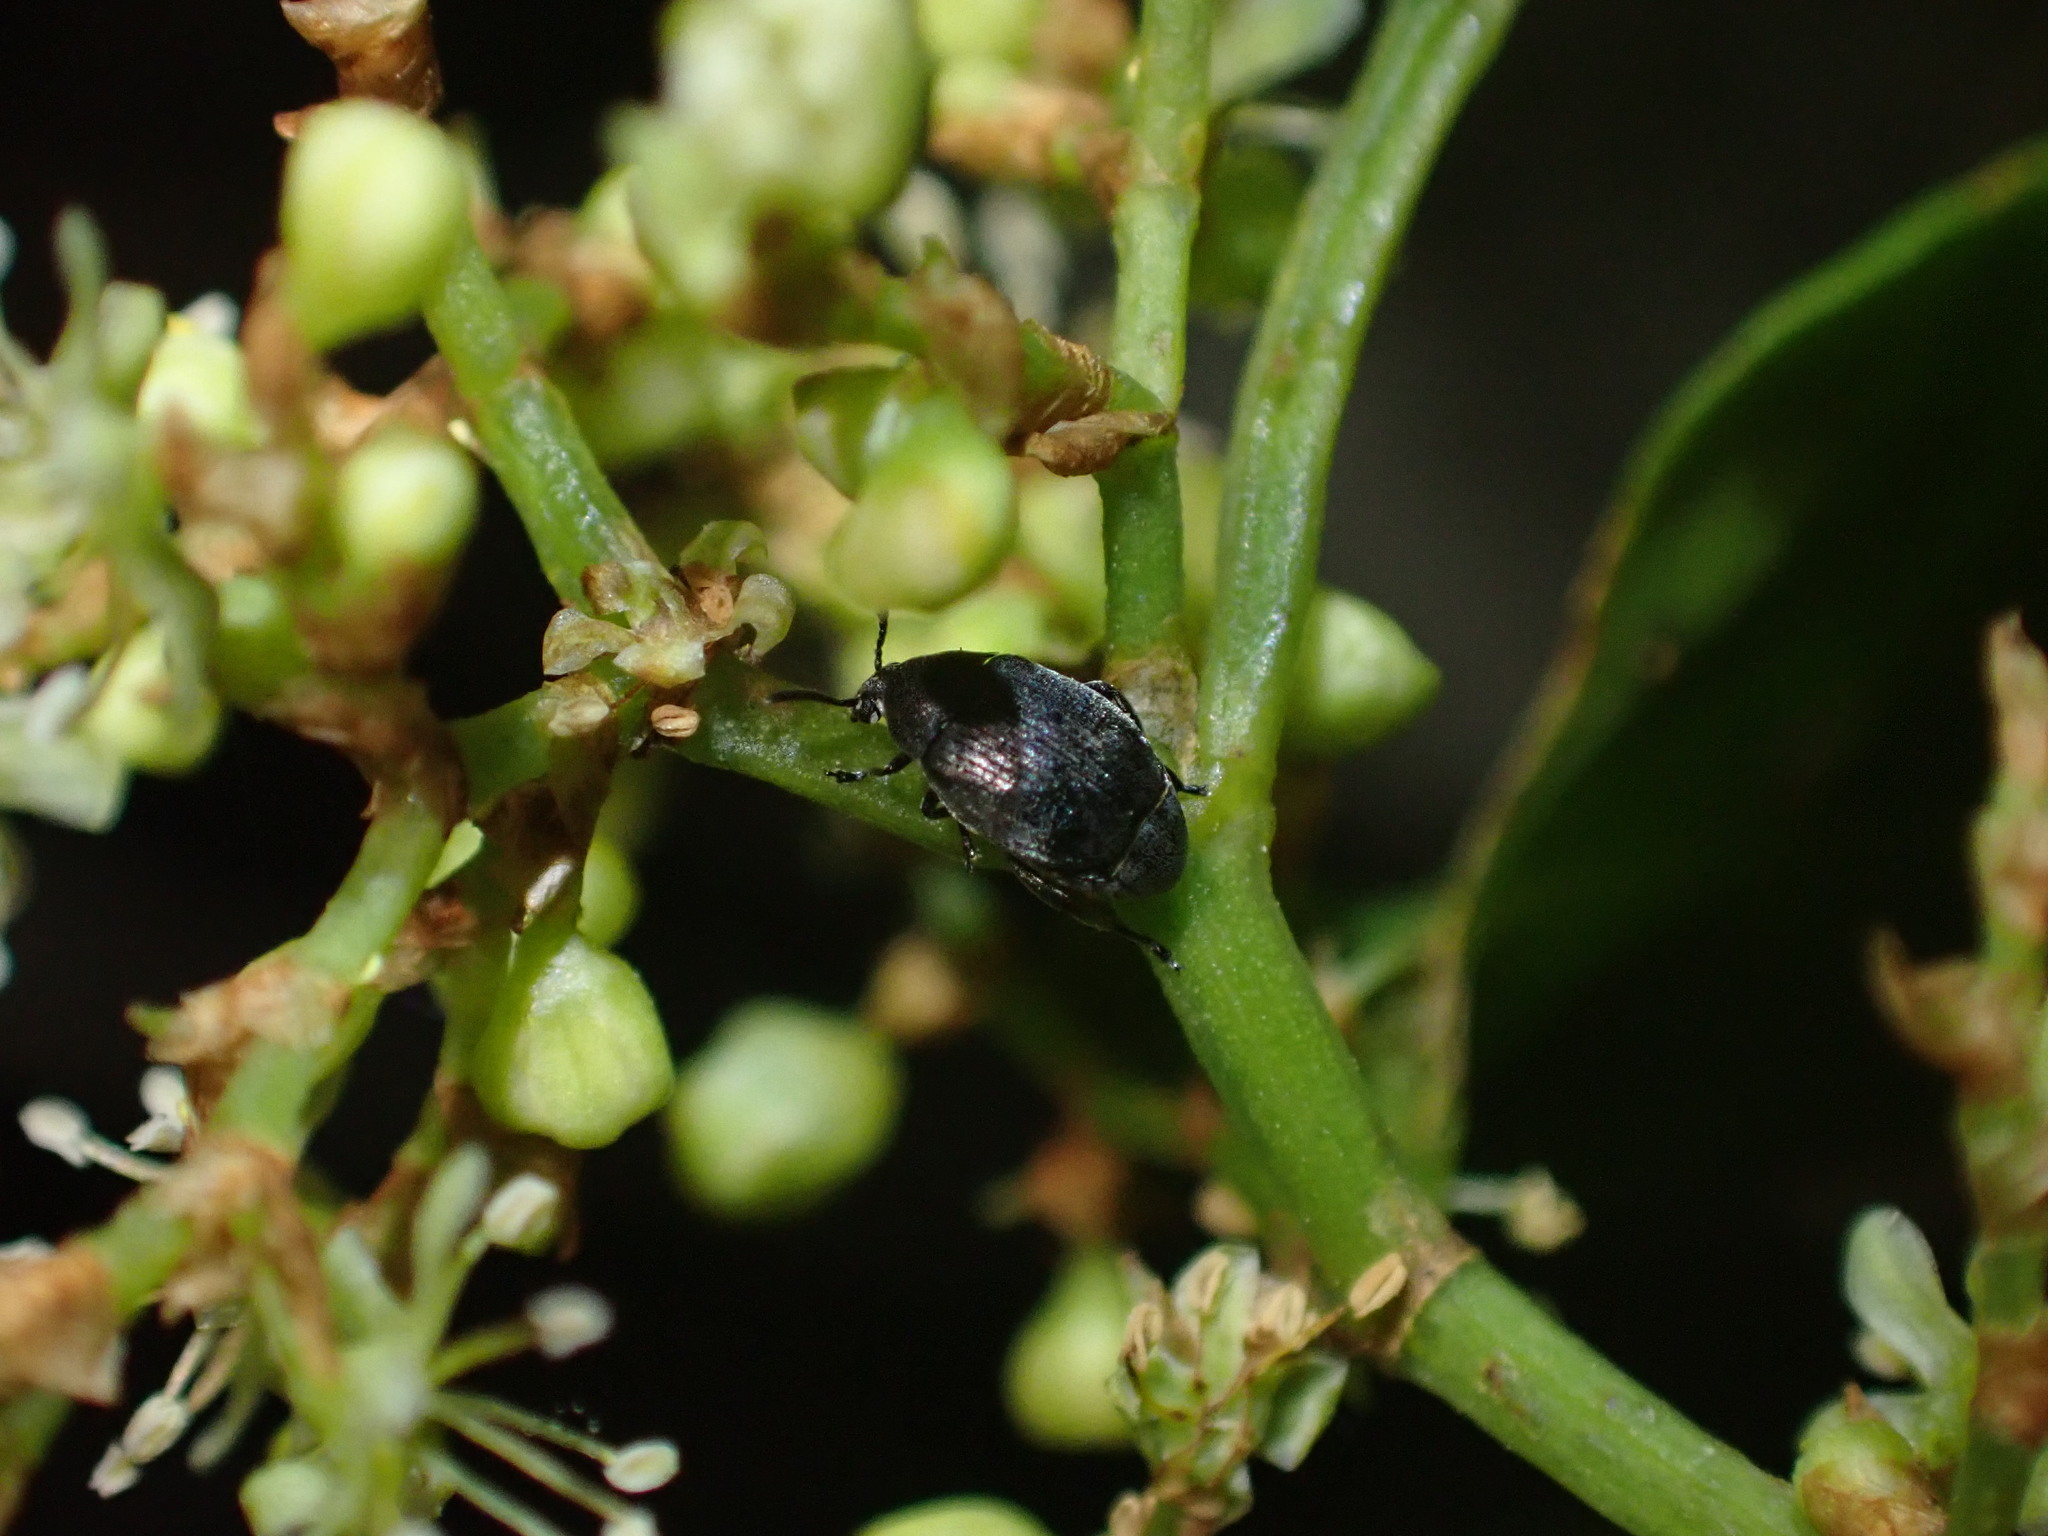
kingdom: Animalia
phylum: Arthropoda
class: Insecta
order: Coleoptera
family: Chrysomelidae
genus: Bruchidius
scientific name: Bruchidius villosus
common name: Scotch broom bruchid
